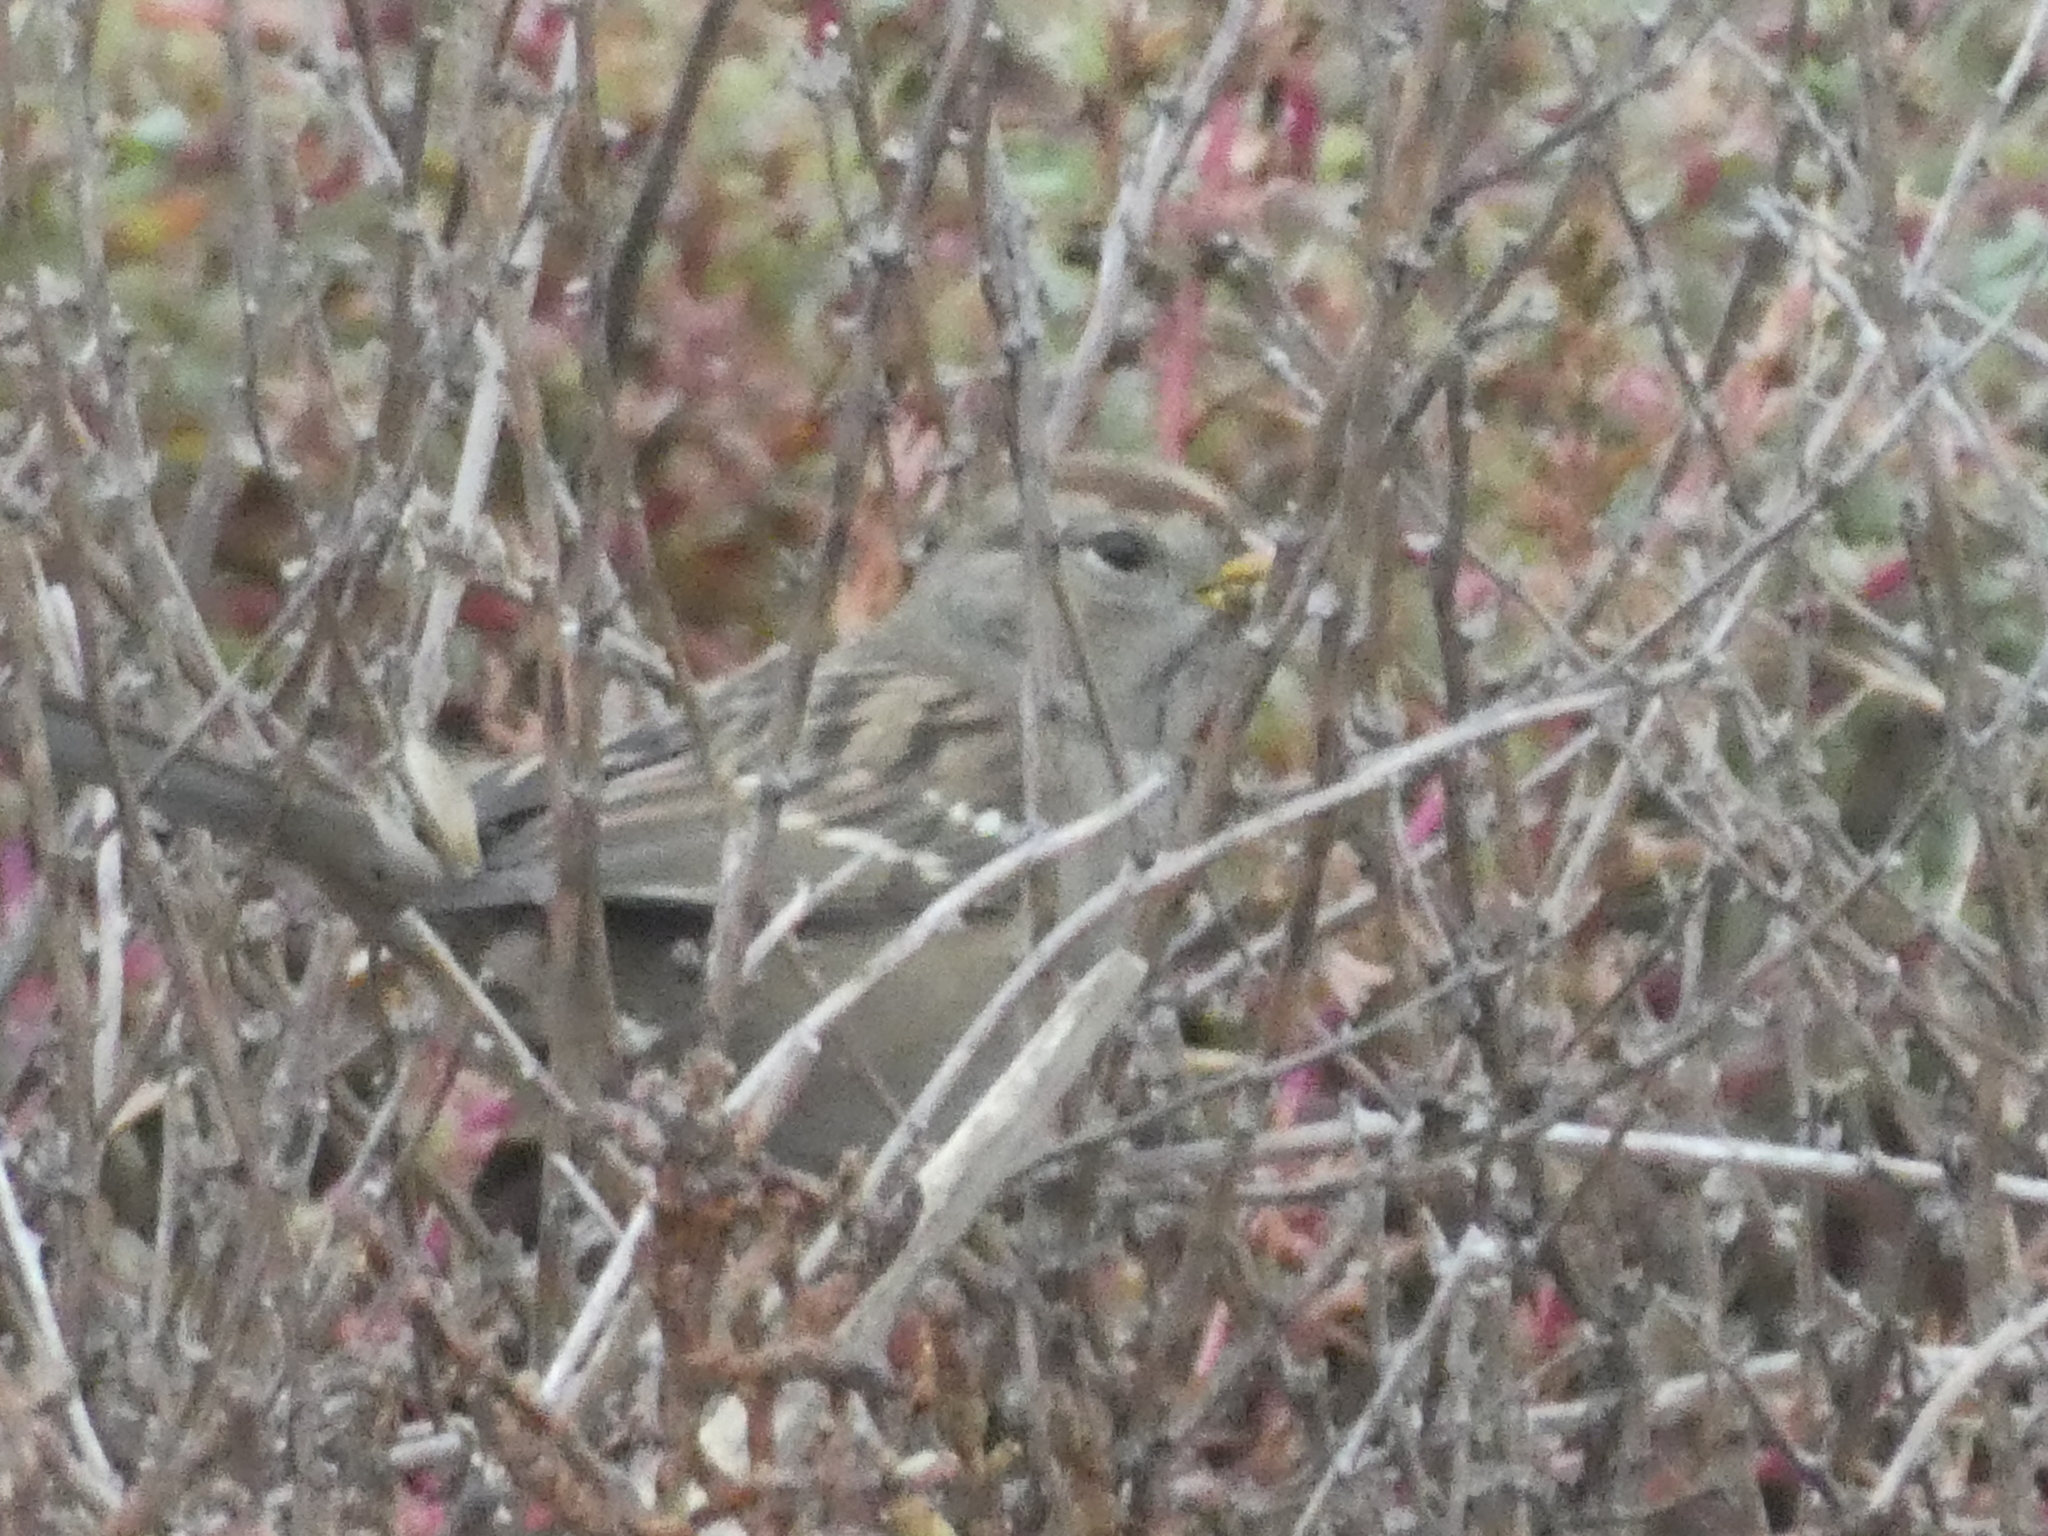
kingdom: Animalia
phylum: Chordata
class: Aves
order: Passeriformes
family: Passerellidae
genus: Zonotrichia
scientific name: Zonotrichia leucophrys
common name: White-crowned sparrow
